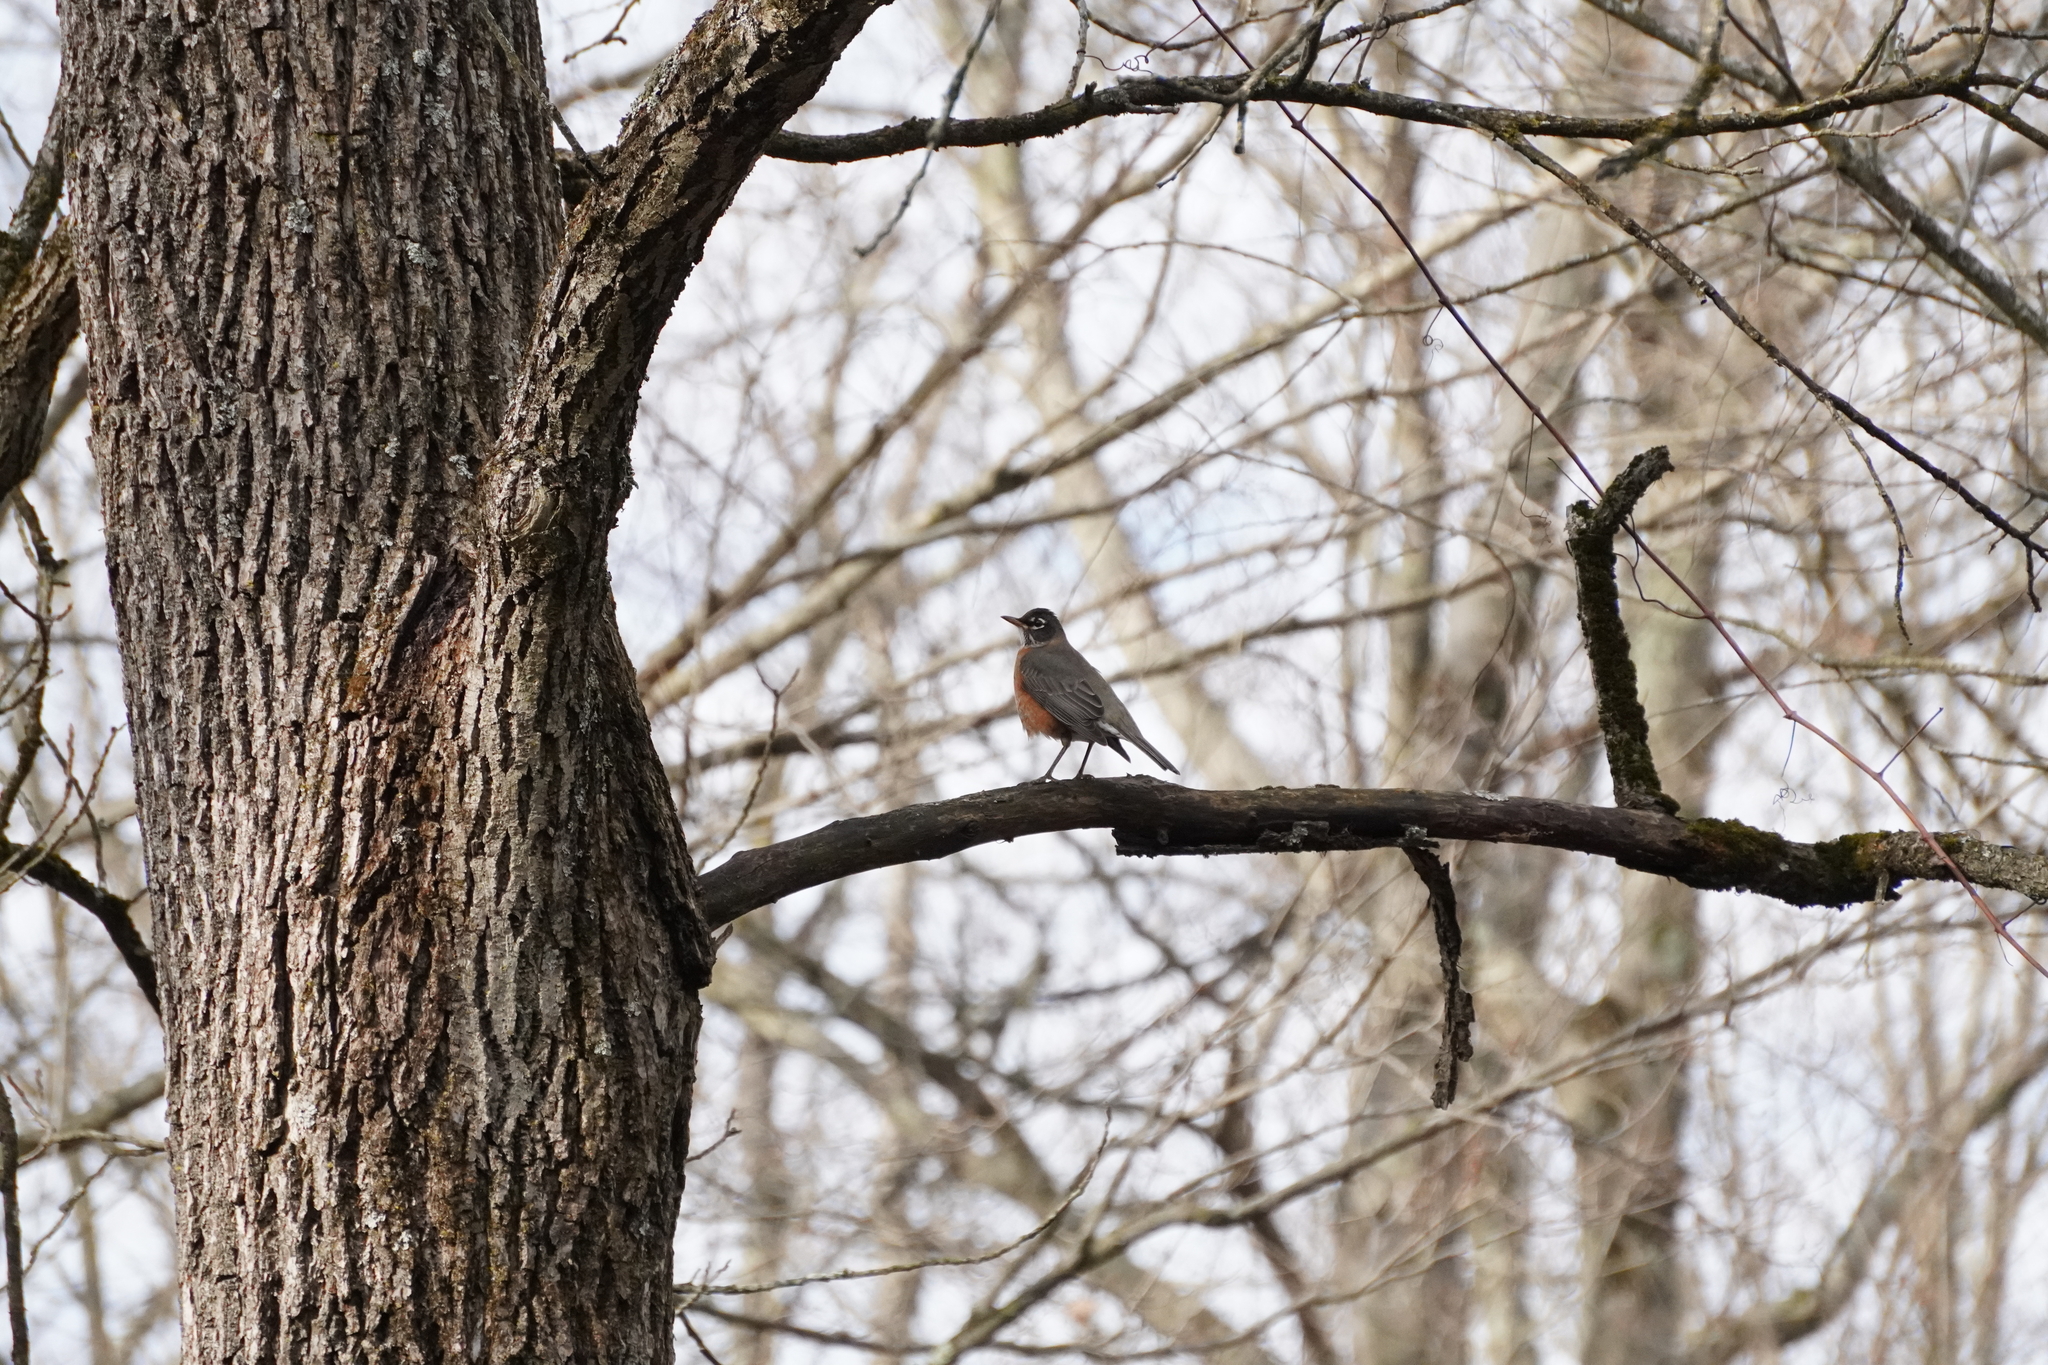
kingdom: Animalia
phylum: Chordata
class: Aves
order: Passeriformes
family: Turdidae
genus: Turdus
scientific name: Turdus migratorius
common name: American robin
